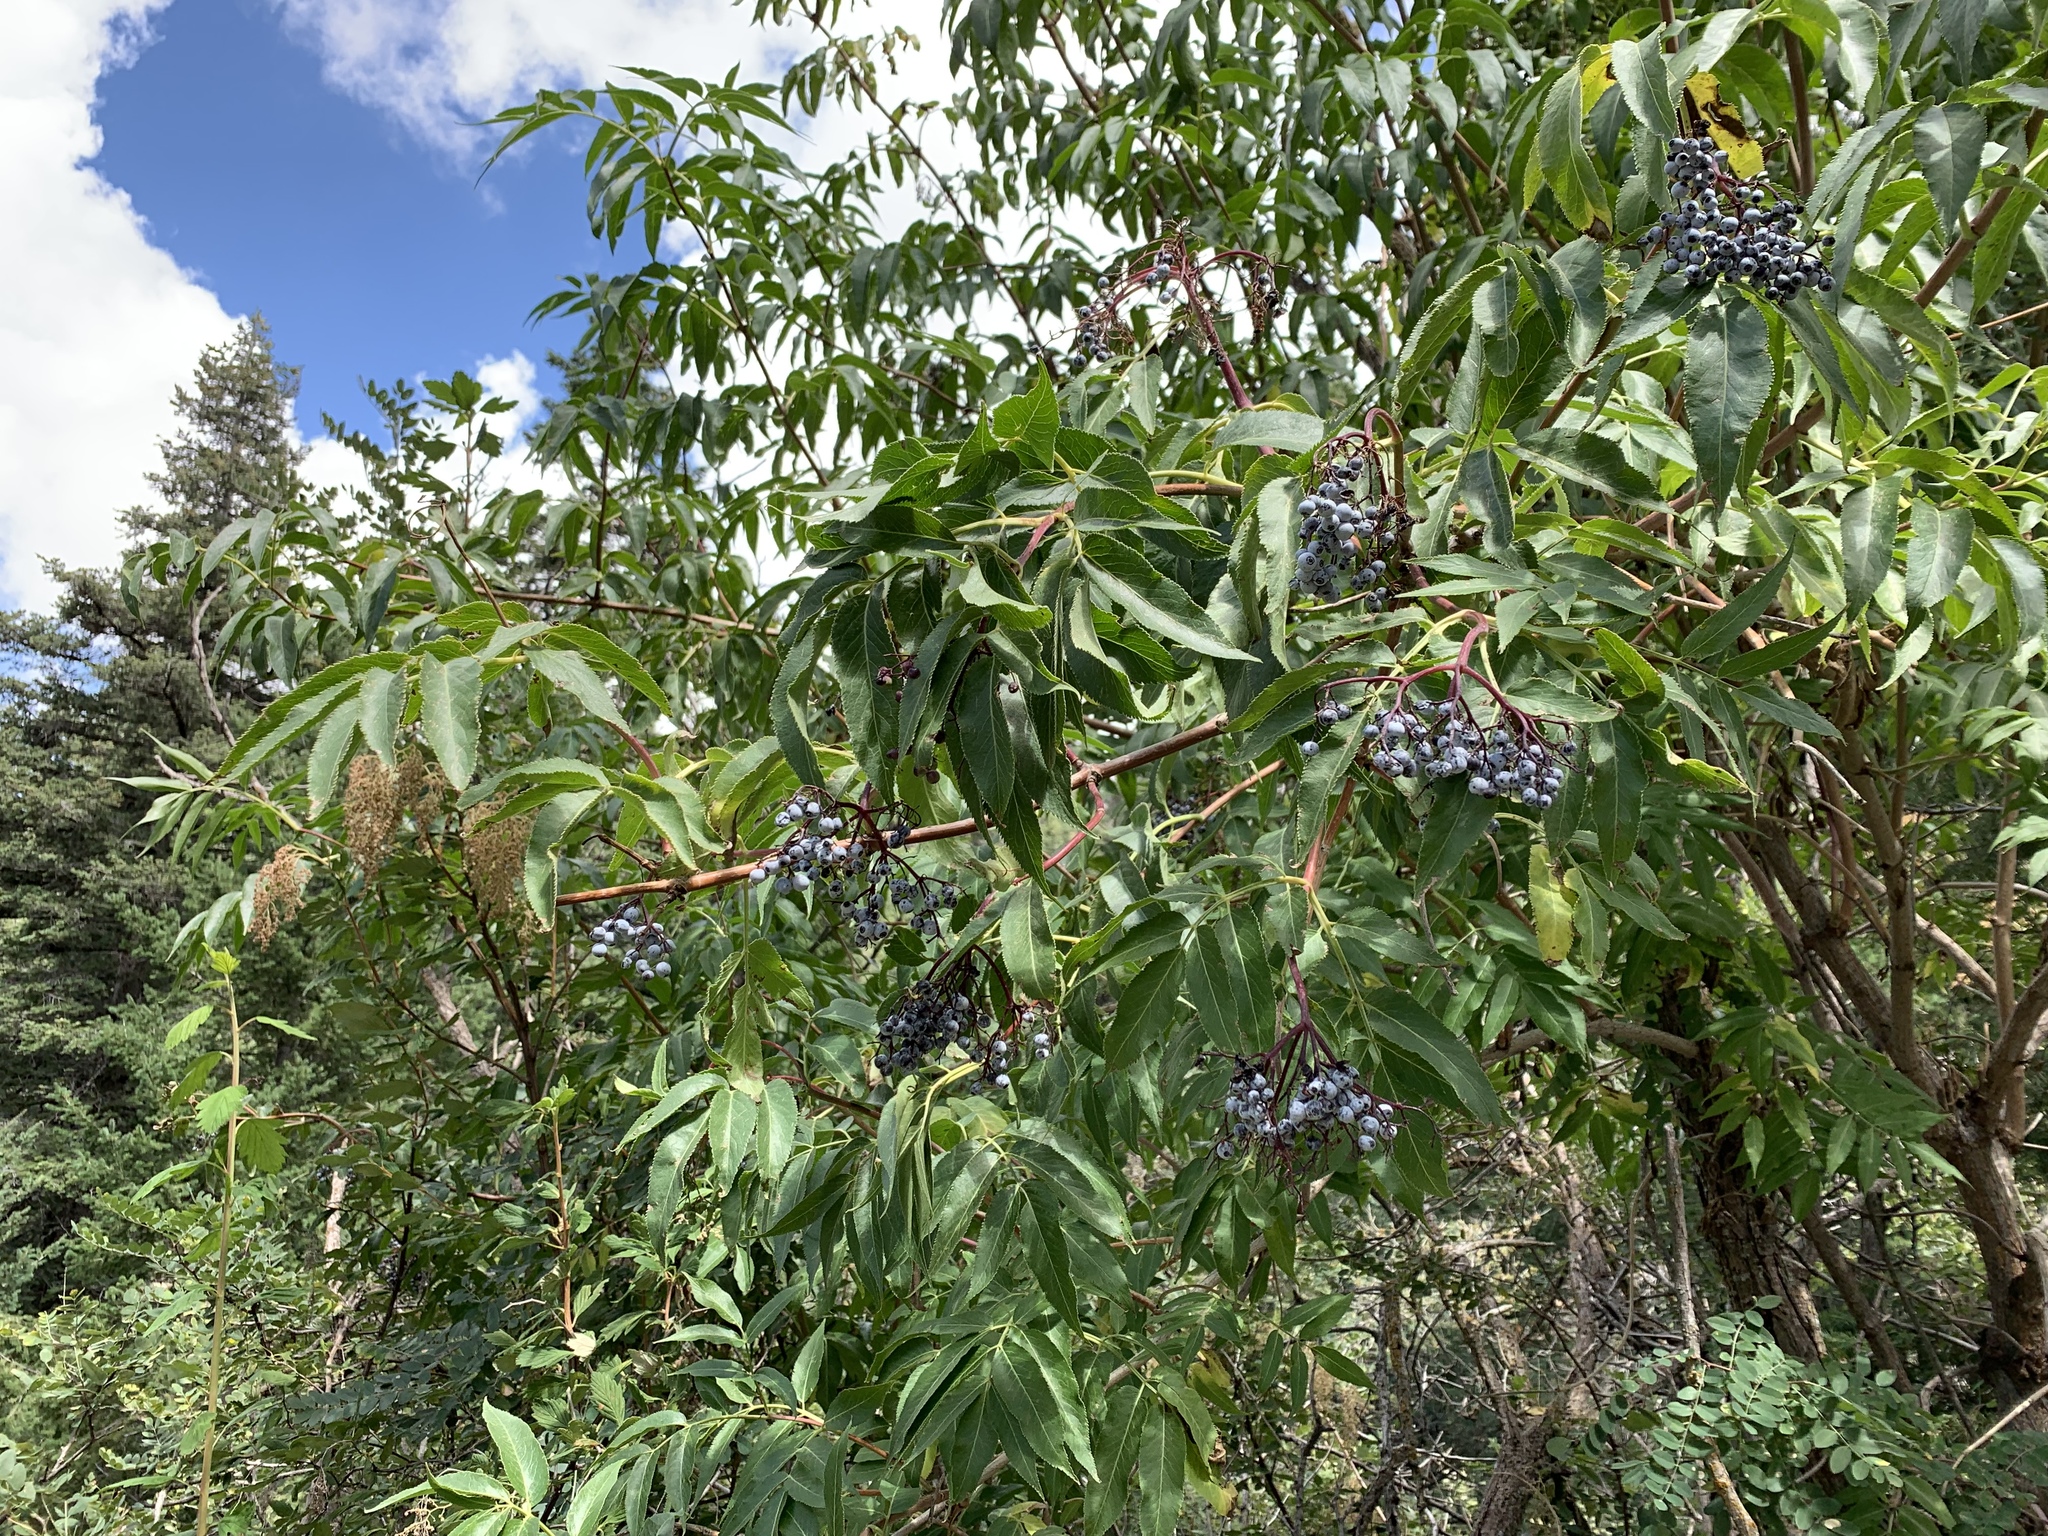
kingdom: Plantae
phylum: Tracheophyta
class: Magnoliopsida
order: Dipsacales
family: Viburnaceae
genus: Sambucus
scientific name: Sambucus cerulea
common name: Blue elder
